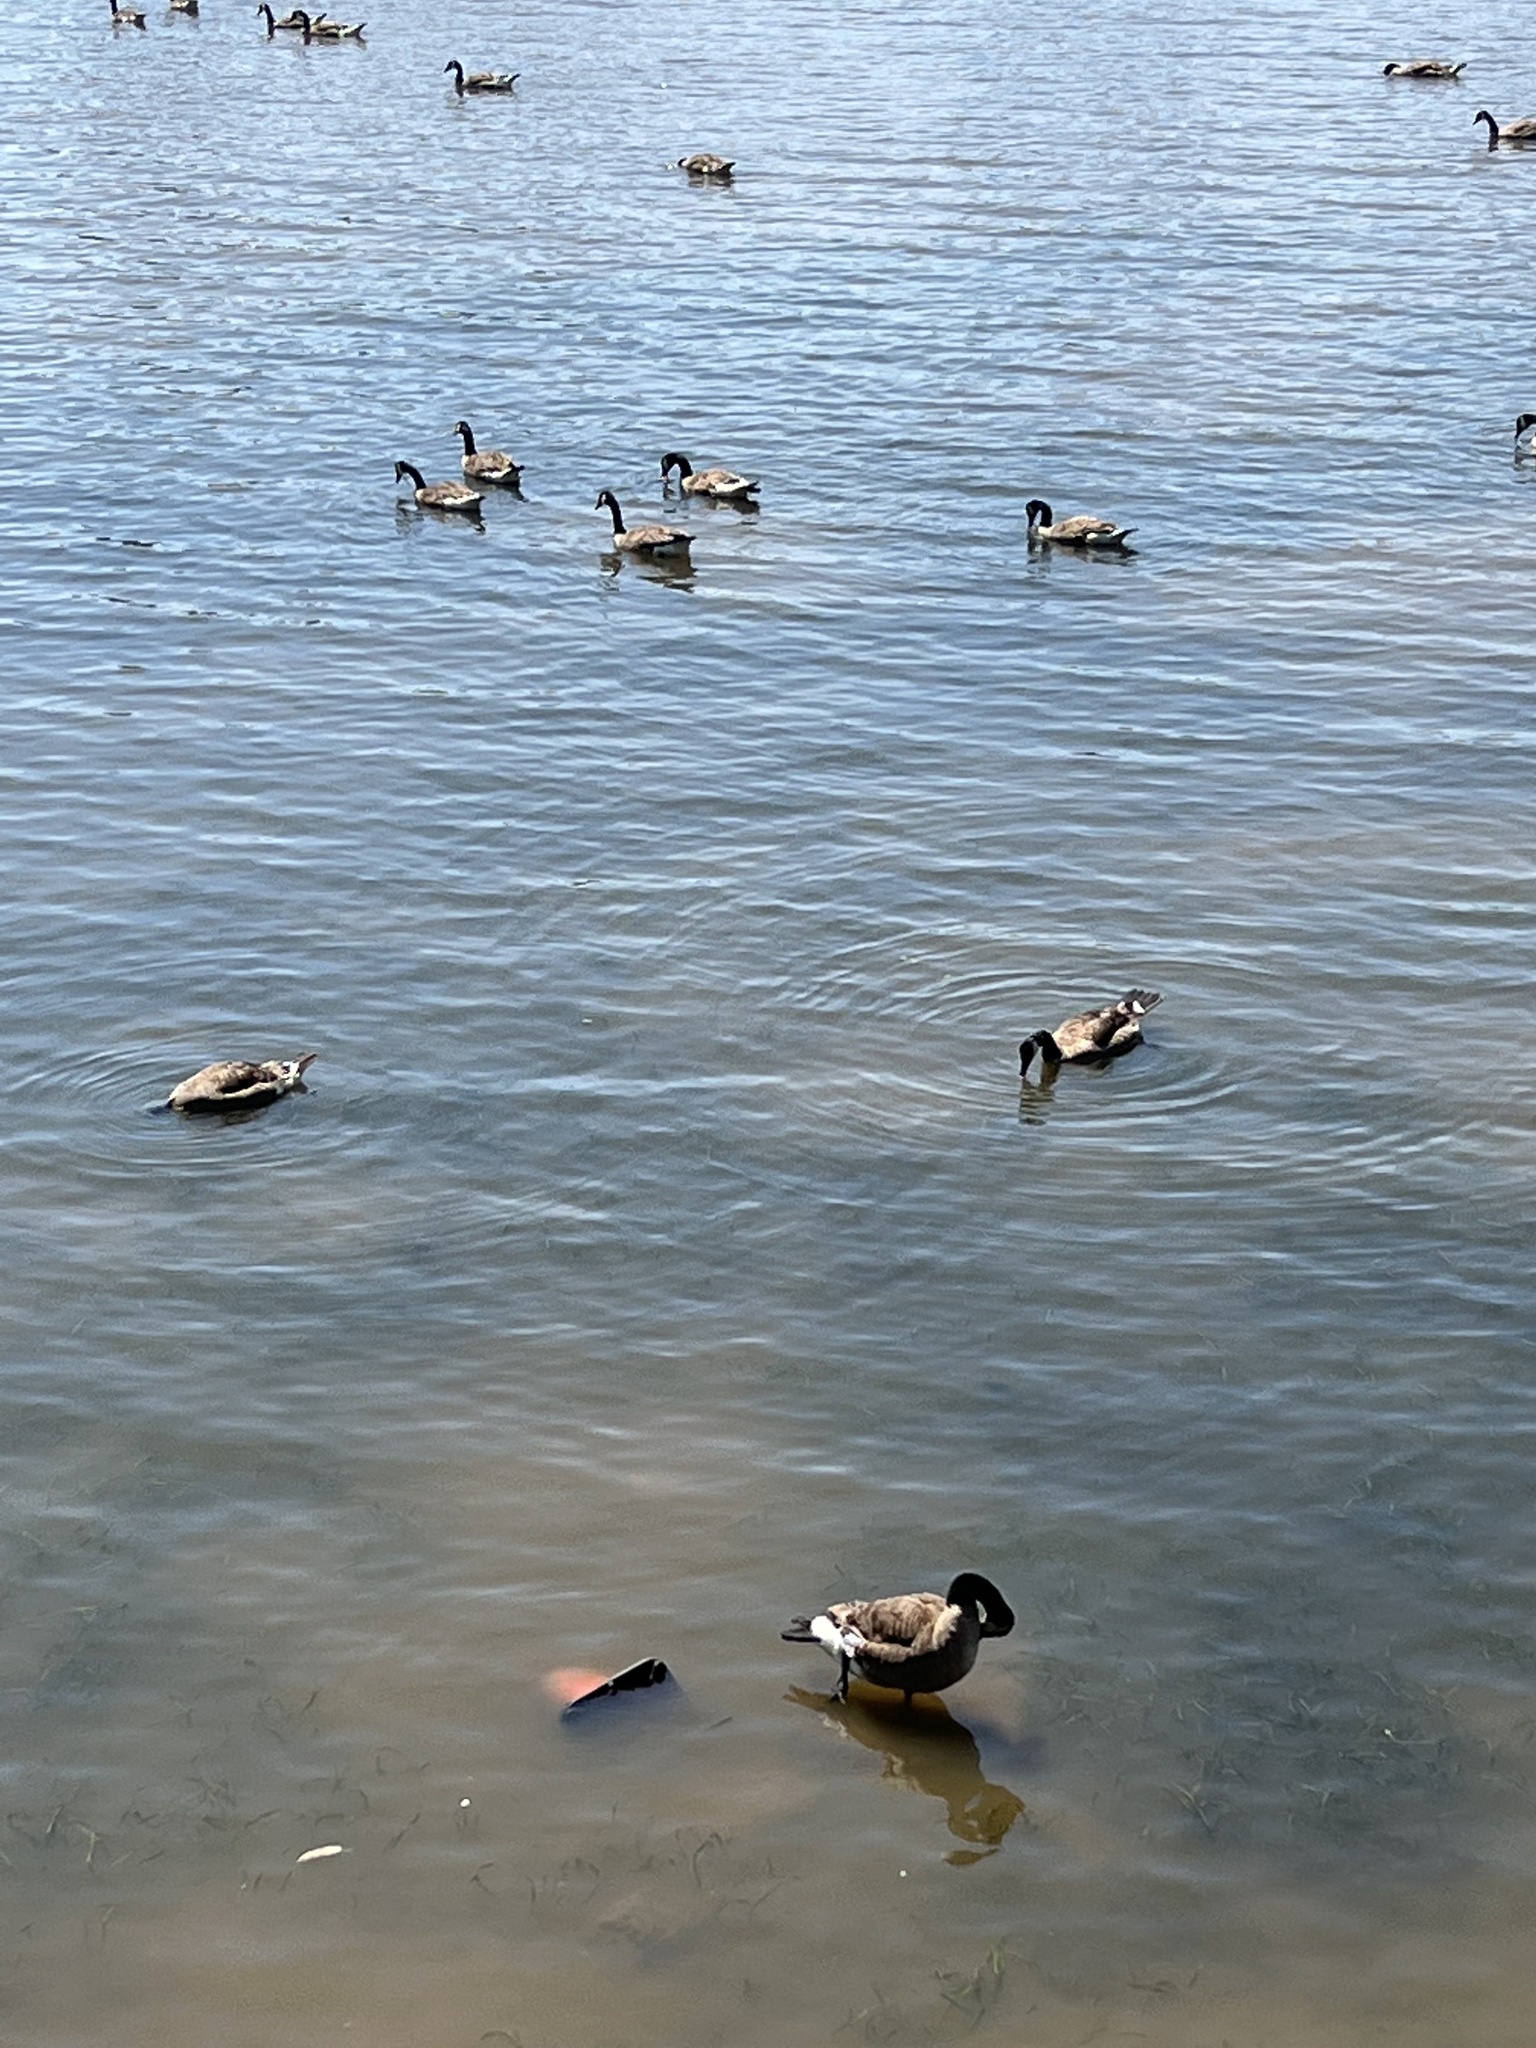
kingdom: Animalia
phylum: Chordata
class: Aves
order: Anseriformes
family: Anatidae
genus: Branta
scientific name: Branta canadensis
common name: Canada goose
